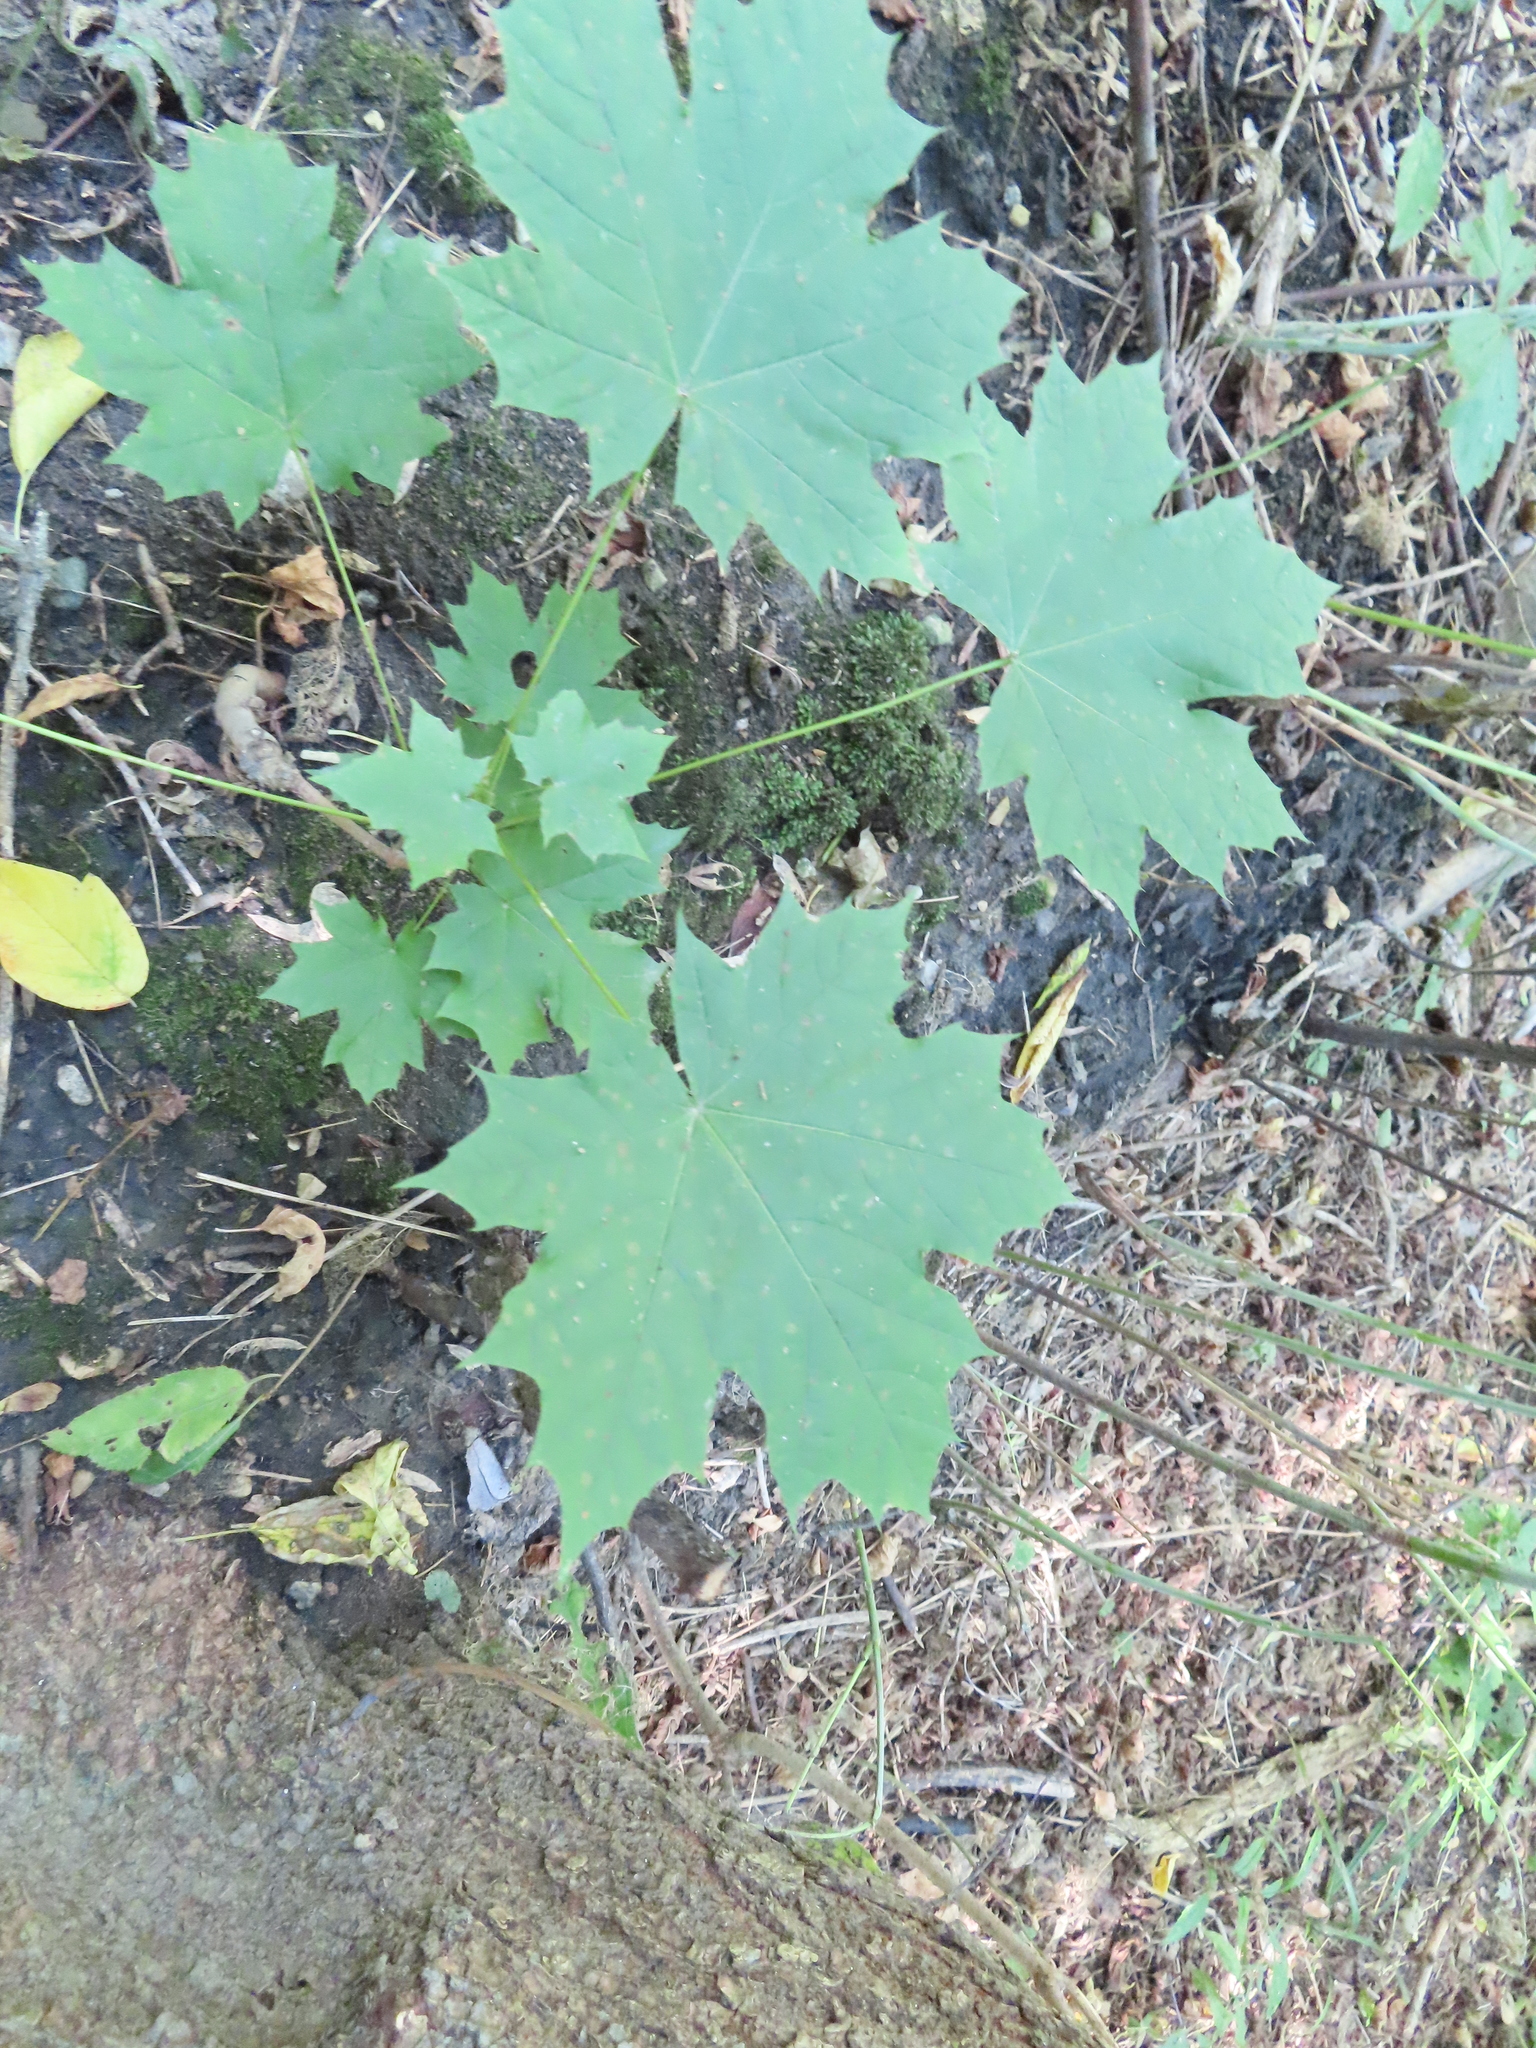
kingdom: Plantae
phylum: Tracheophyta
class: Magnoliopsida
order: Sapindales
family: Sapindaceae
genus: Acer
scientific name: Acer platanoides
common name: Norway maple
